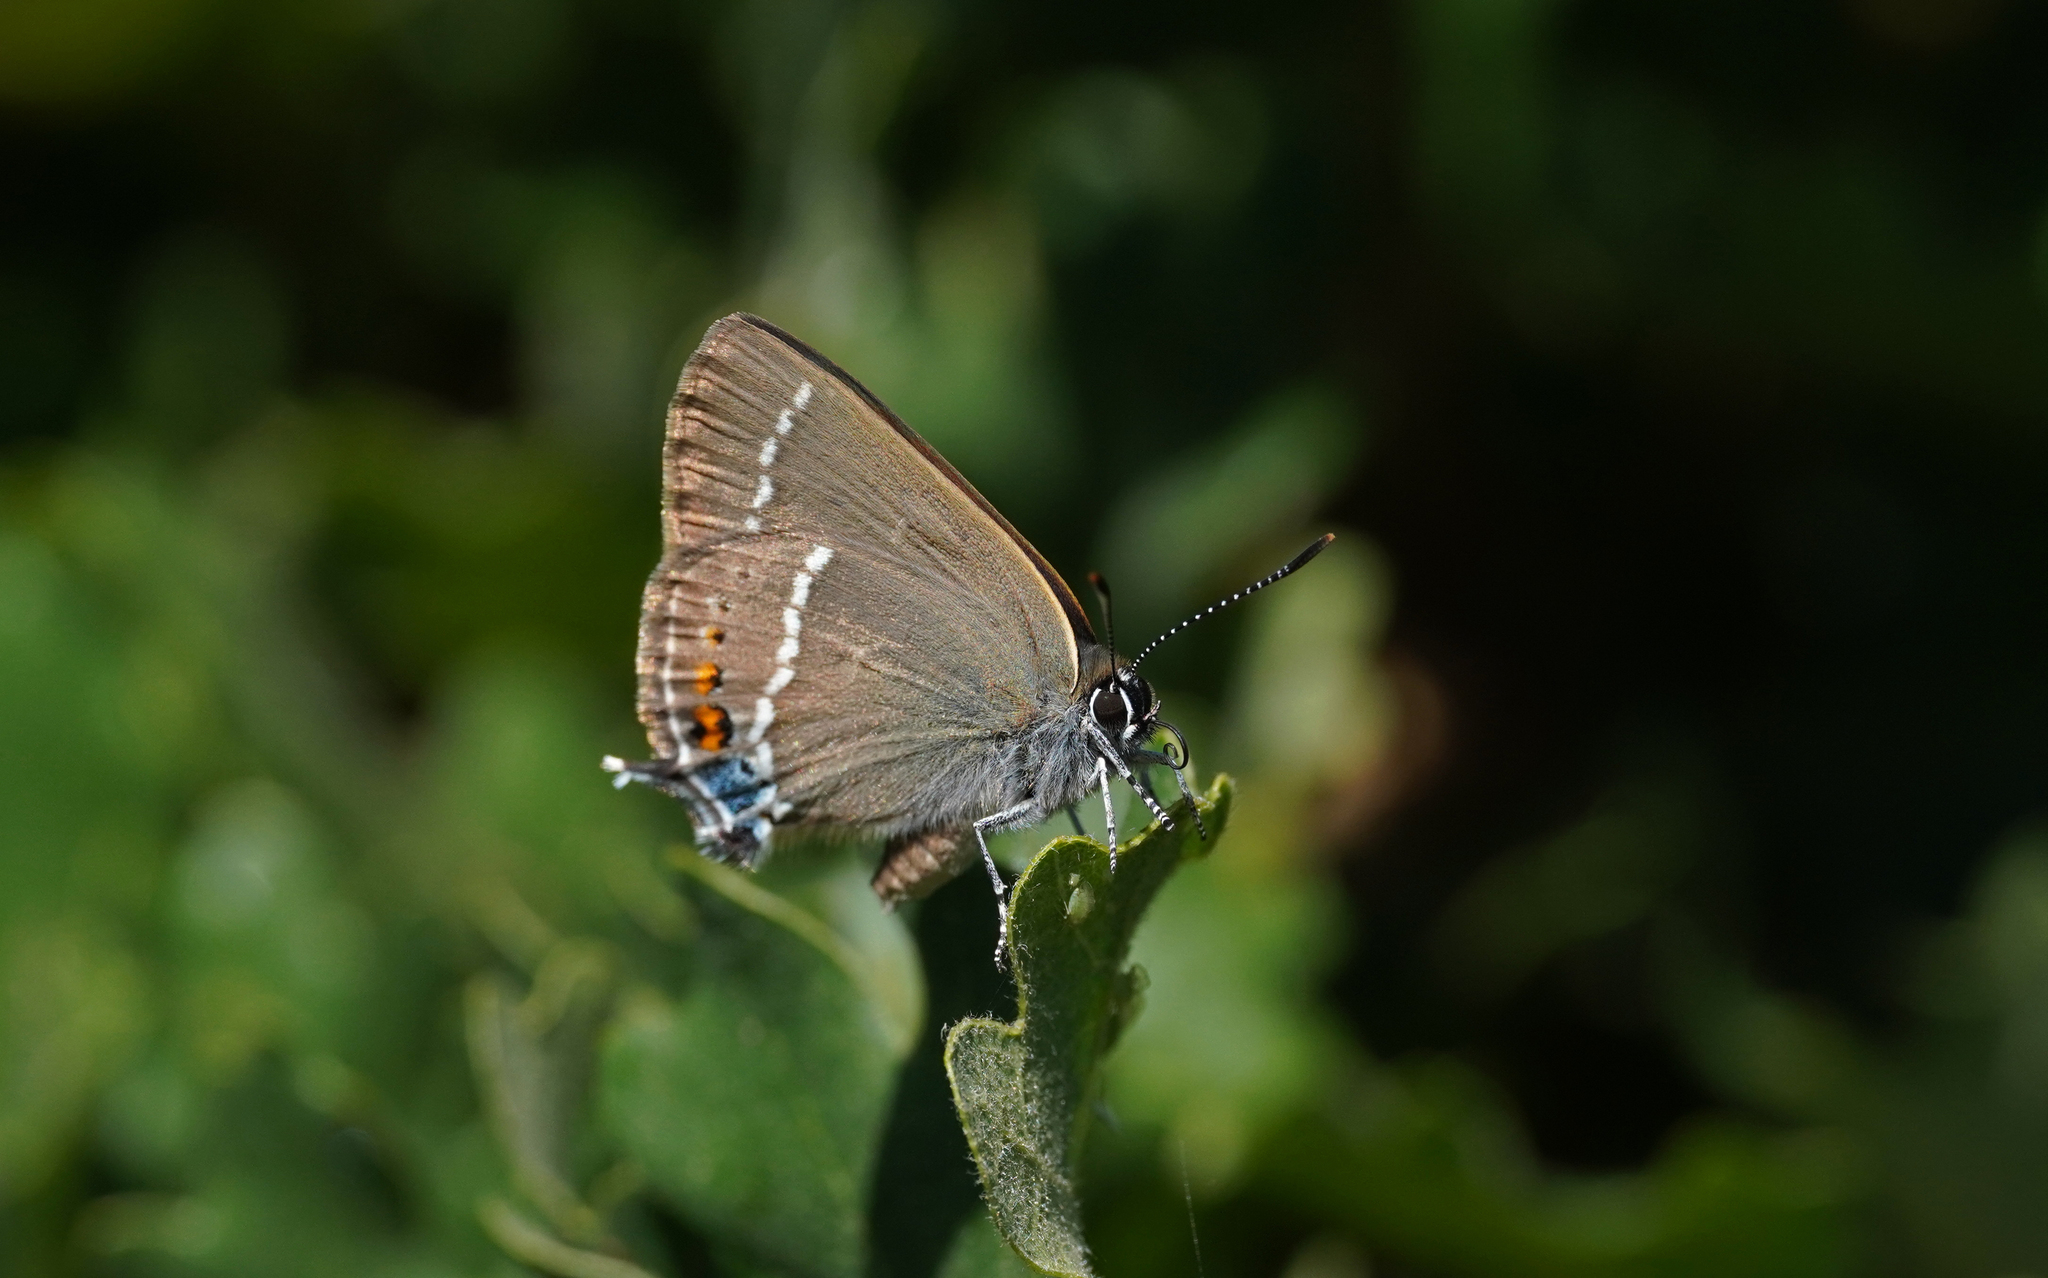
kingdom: Animalia
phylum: Arthropoda
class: Insecta
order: Lepidoptera
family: Lycaenidae
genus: Tuttiola
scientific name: Tuttiola spini
